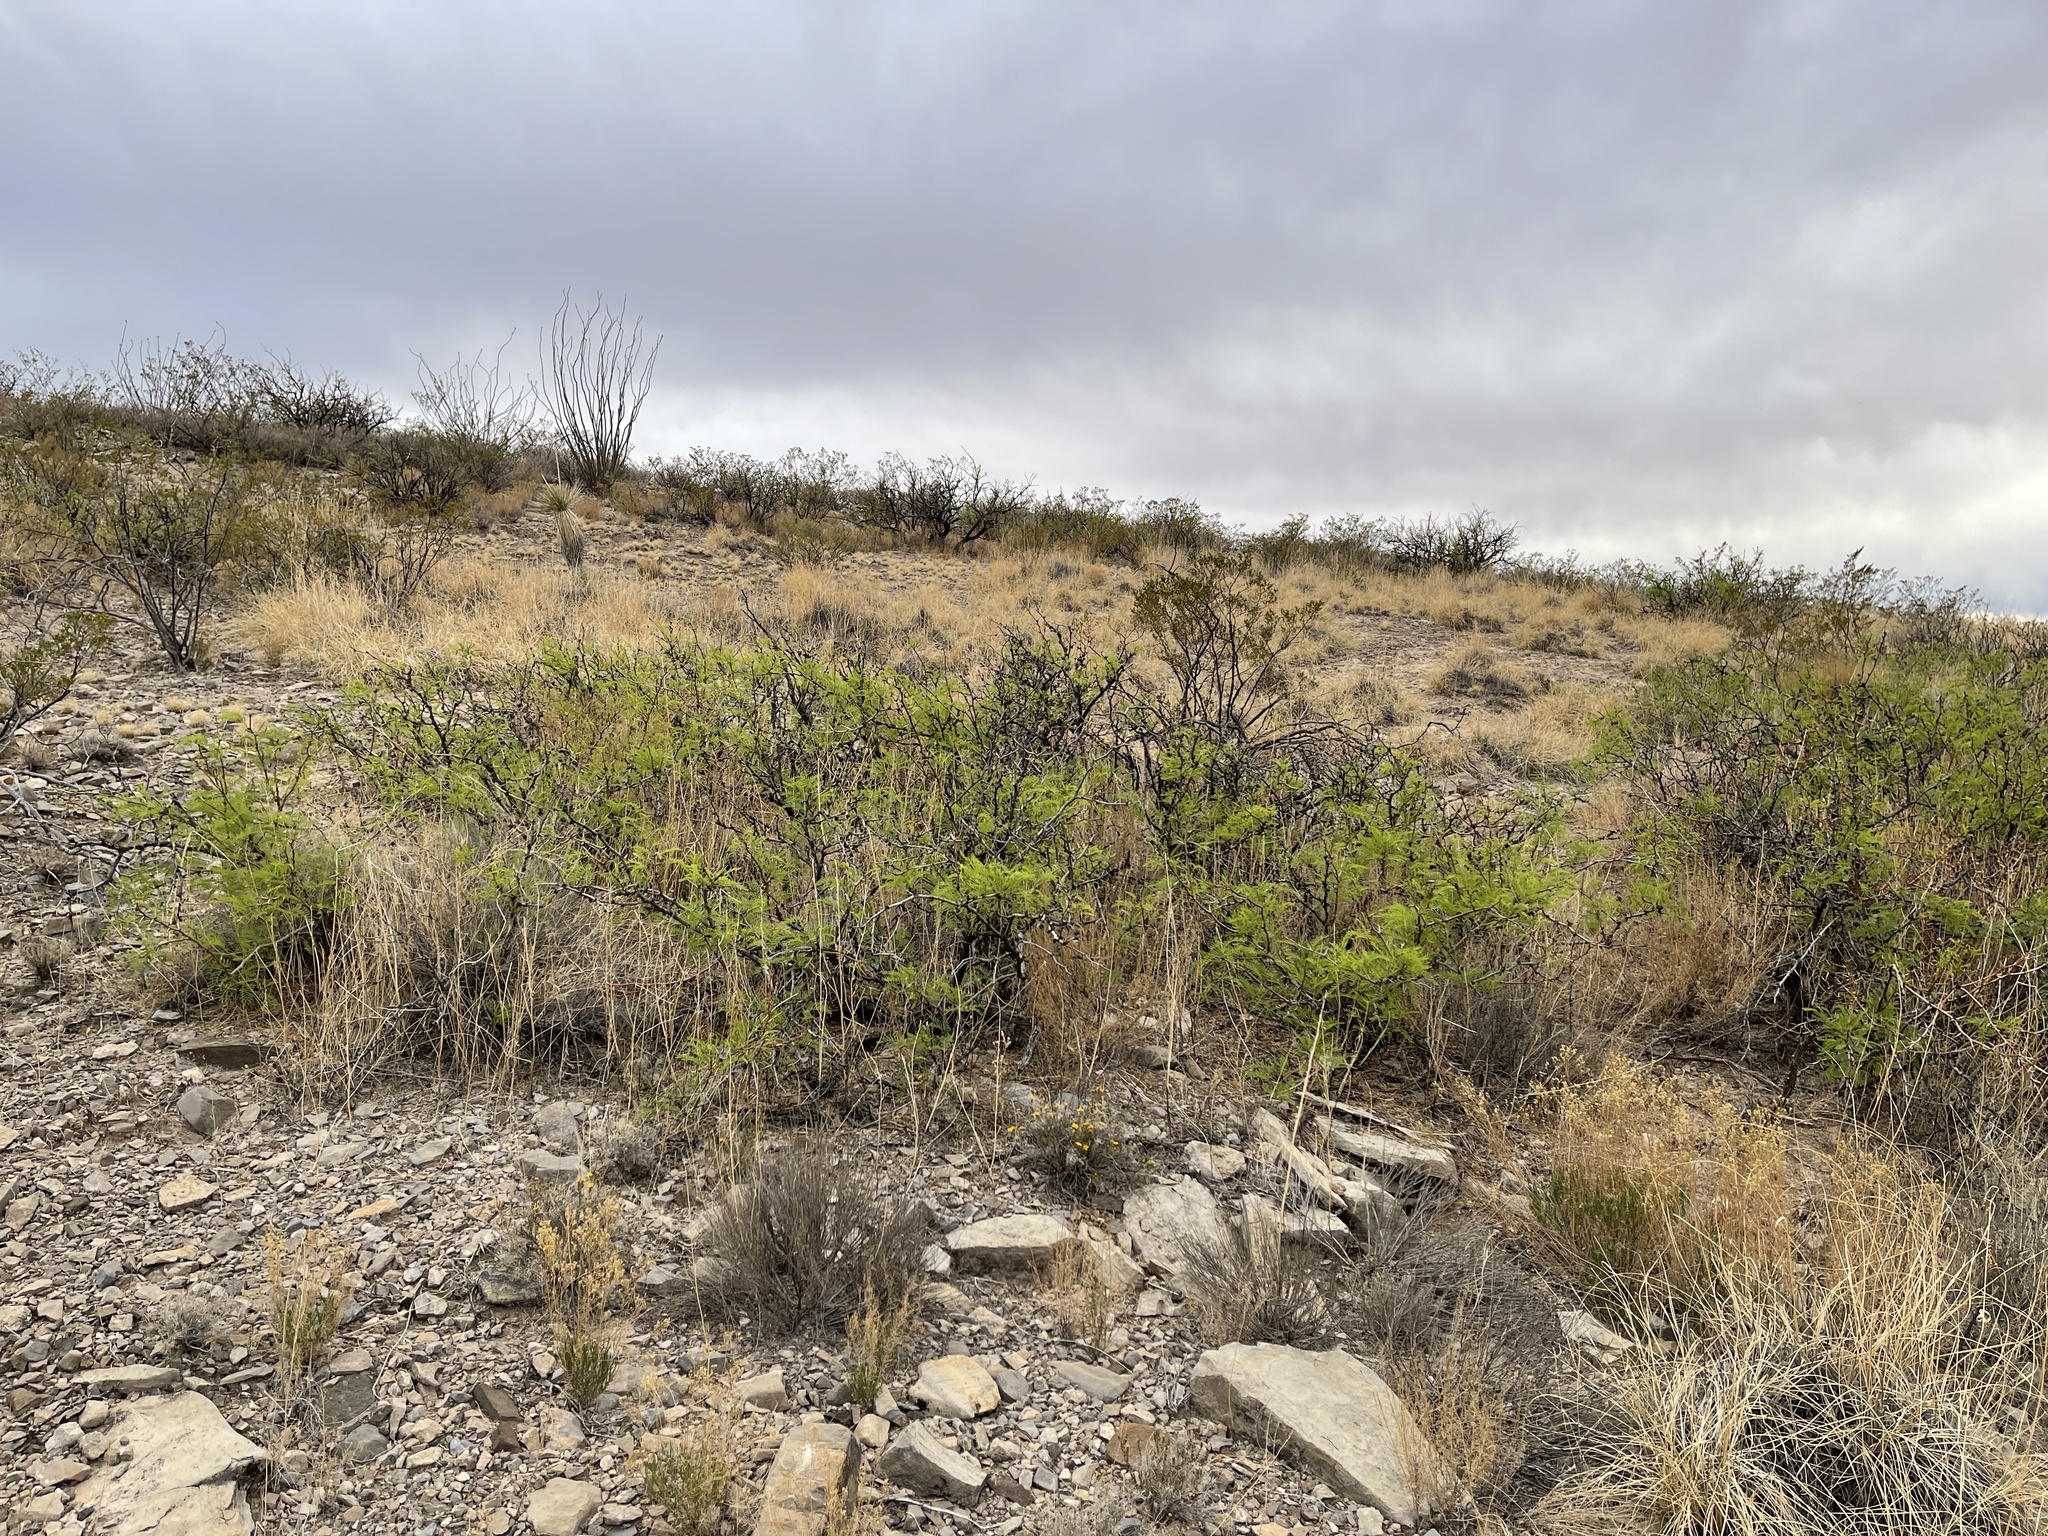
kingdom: Plantae
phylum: Tracheophyta
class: Magnoliopsida
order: Fabales
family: Fabaceae
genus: Prosopis
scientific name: Prosopis glandulosa
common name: Honey mesquite
